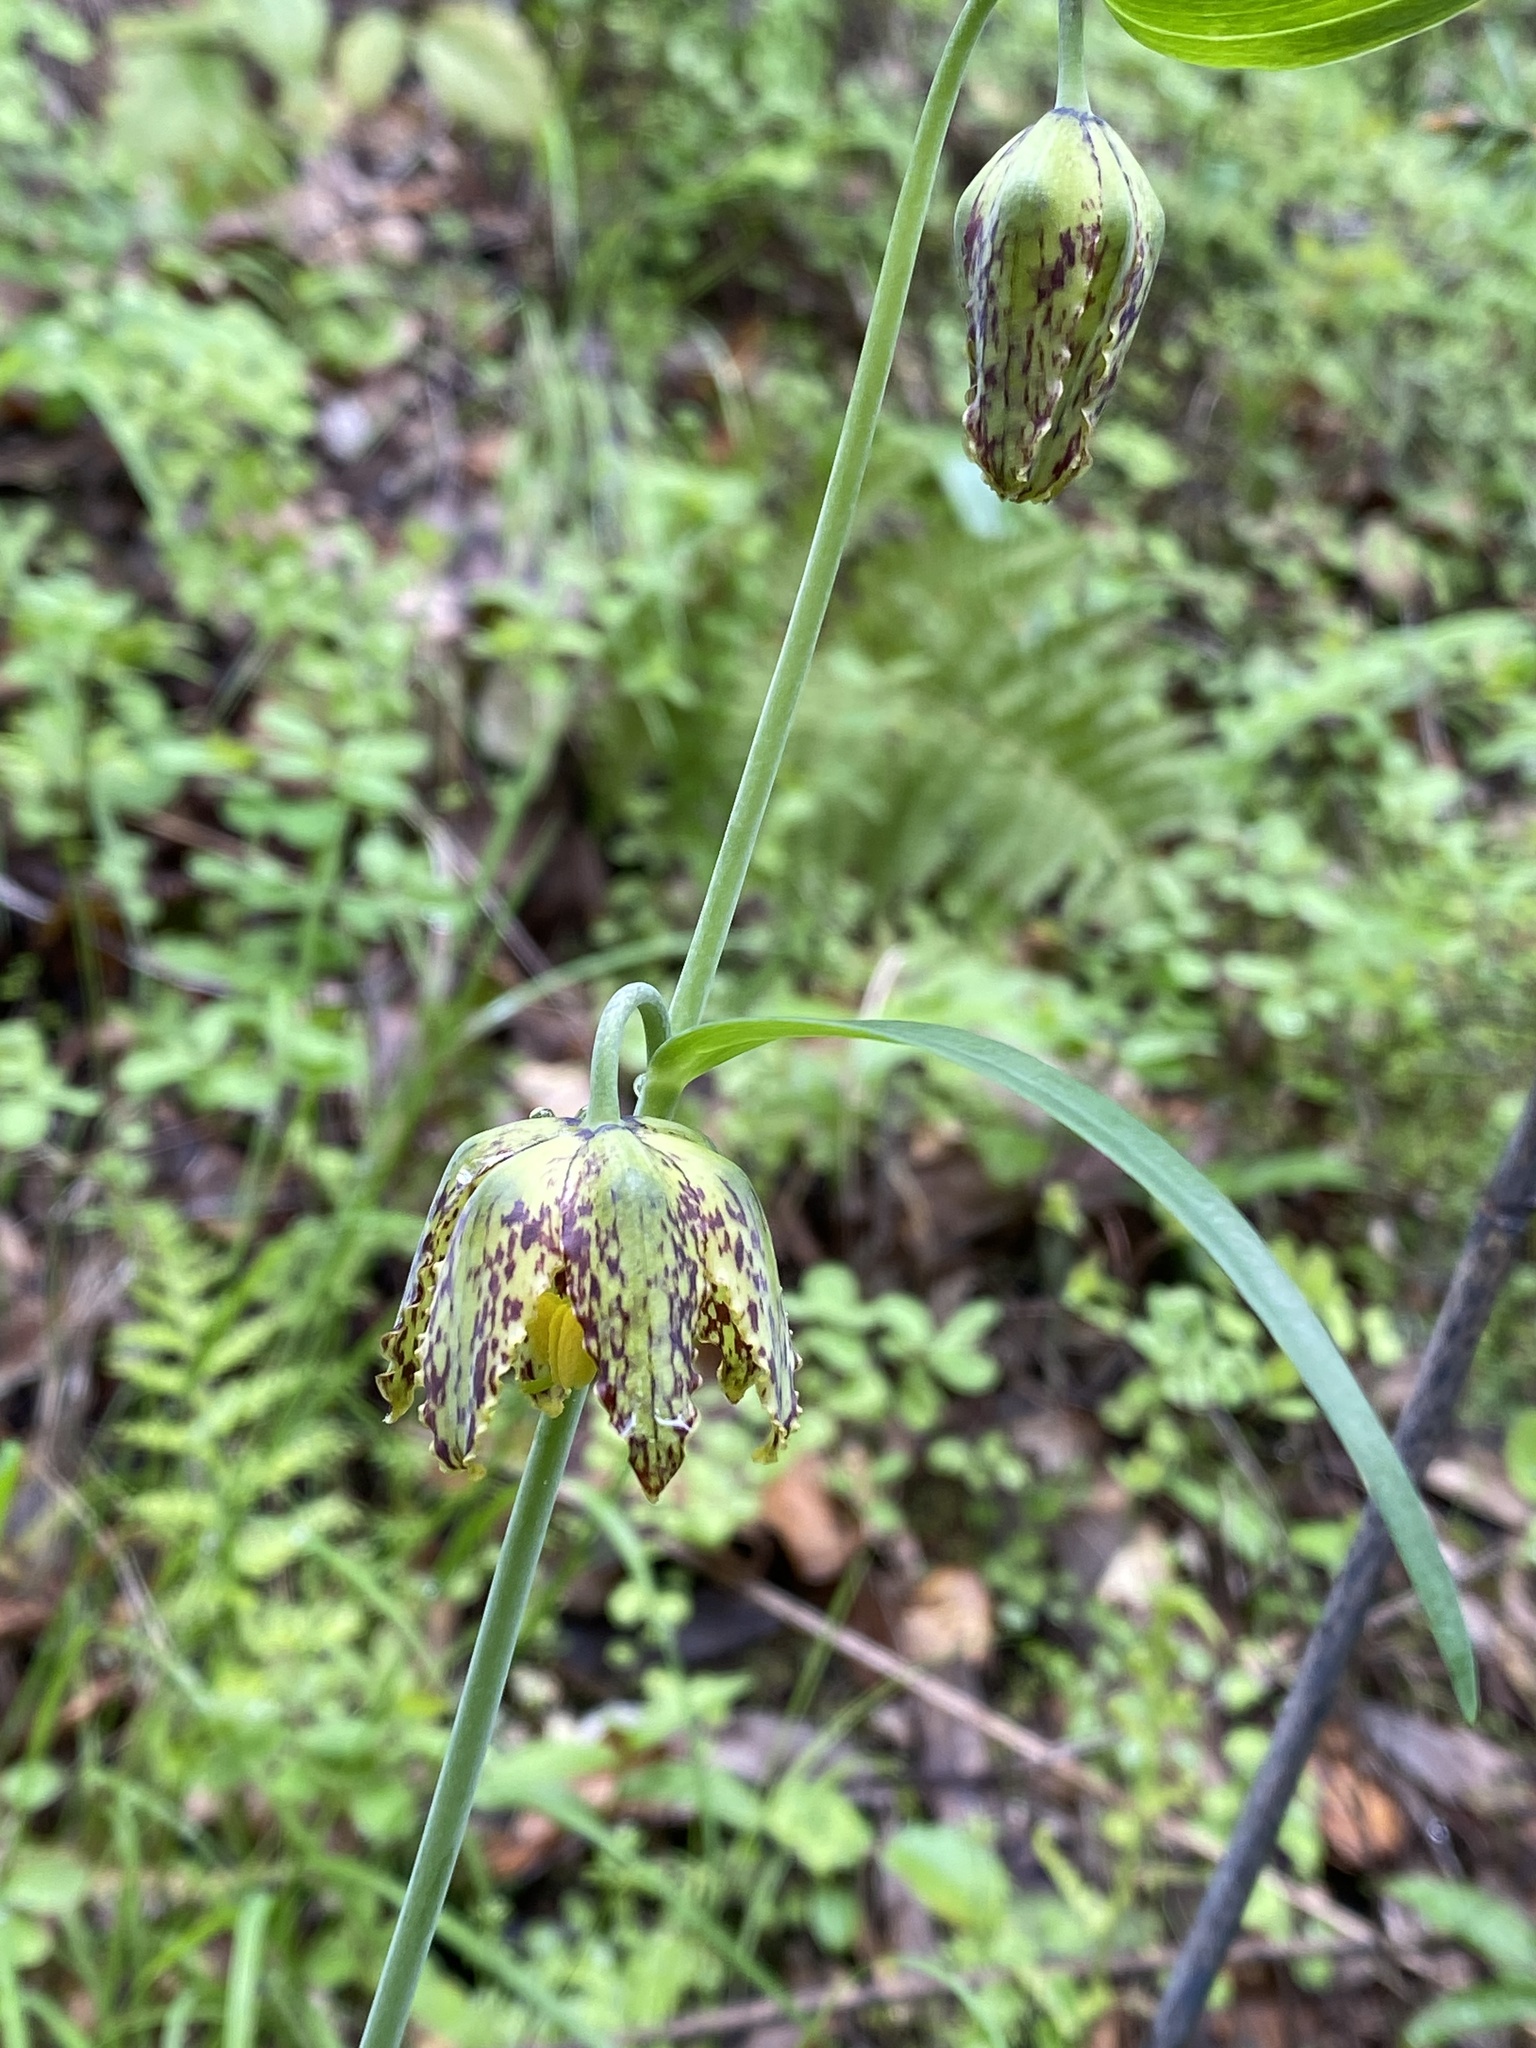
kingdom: Plantae
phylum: Tracheophyta
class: Liliopsida
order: Liliales
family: Liliaceae
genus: Fritillaria
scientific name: Fritillaria affinis
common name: Ojai fritillary
